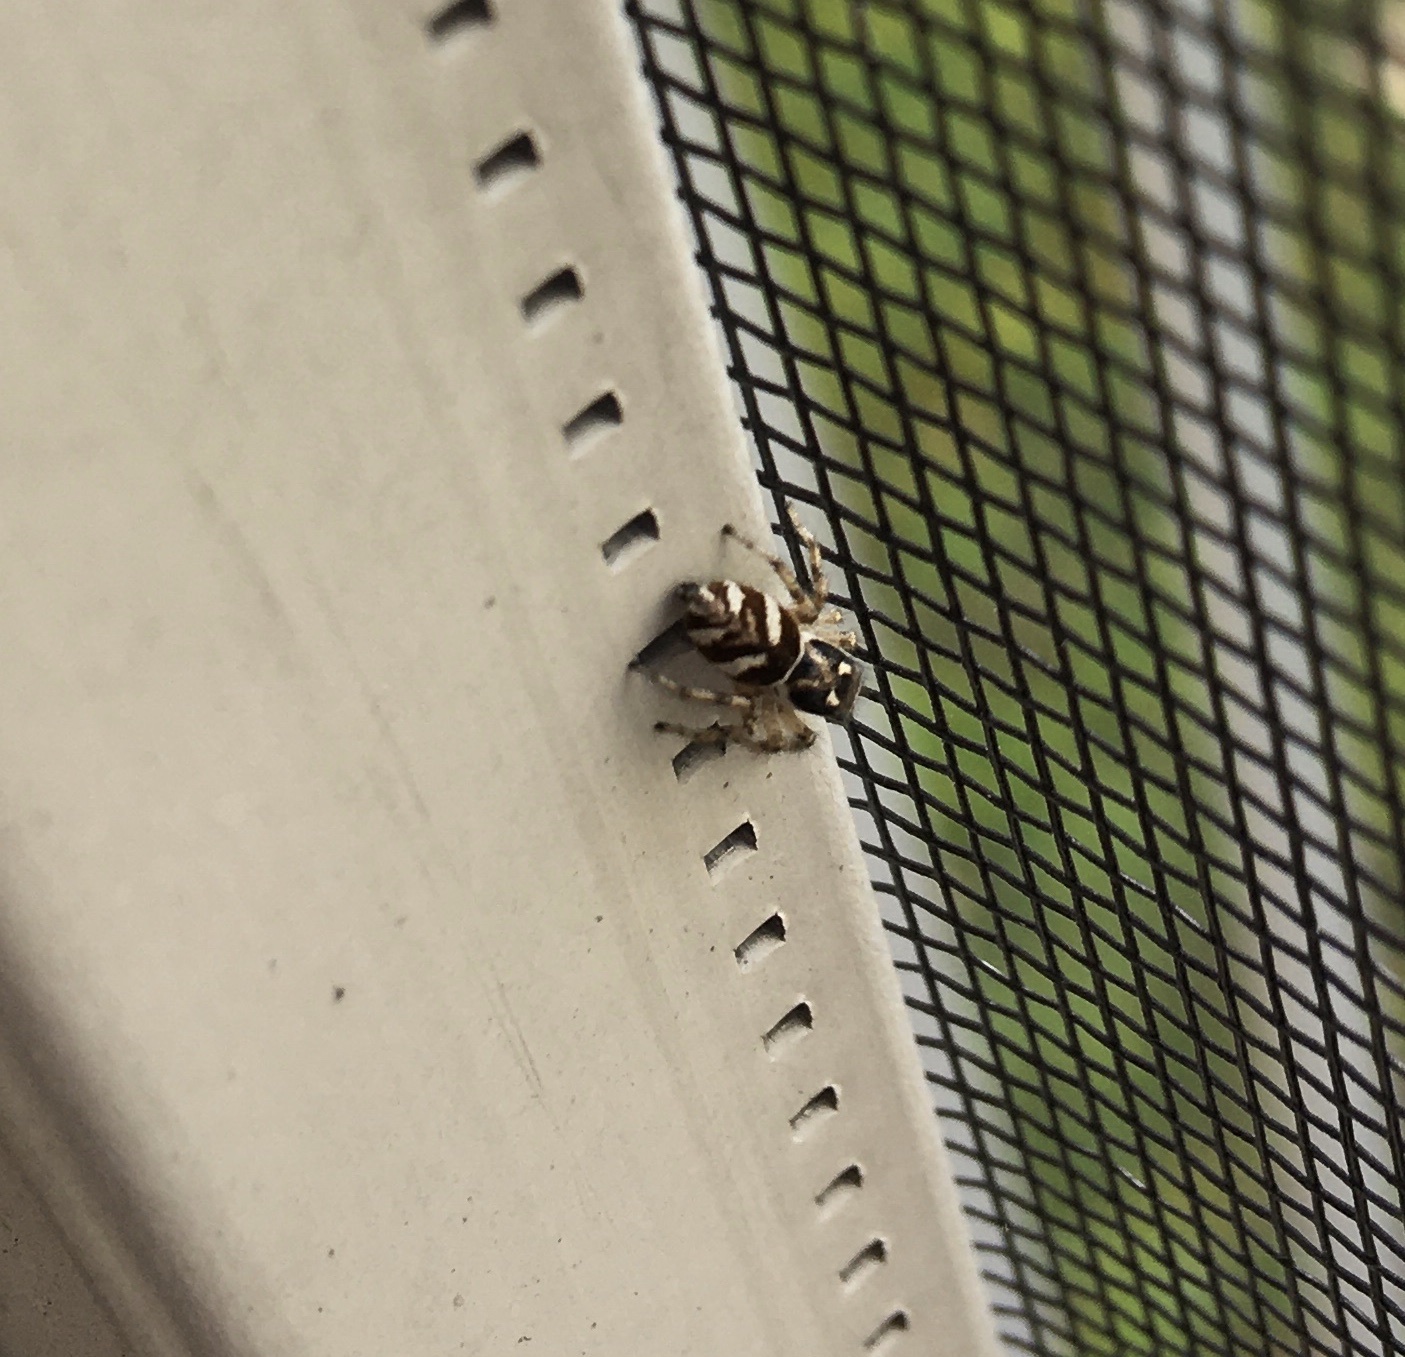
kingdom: Animalia
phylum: Arthropoda
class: Arachnida
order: Araneae
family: Salticidae
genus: Salticus
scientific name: Salticus scenicus
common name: Zebra jumper
